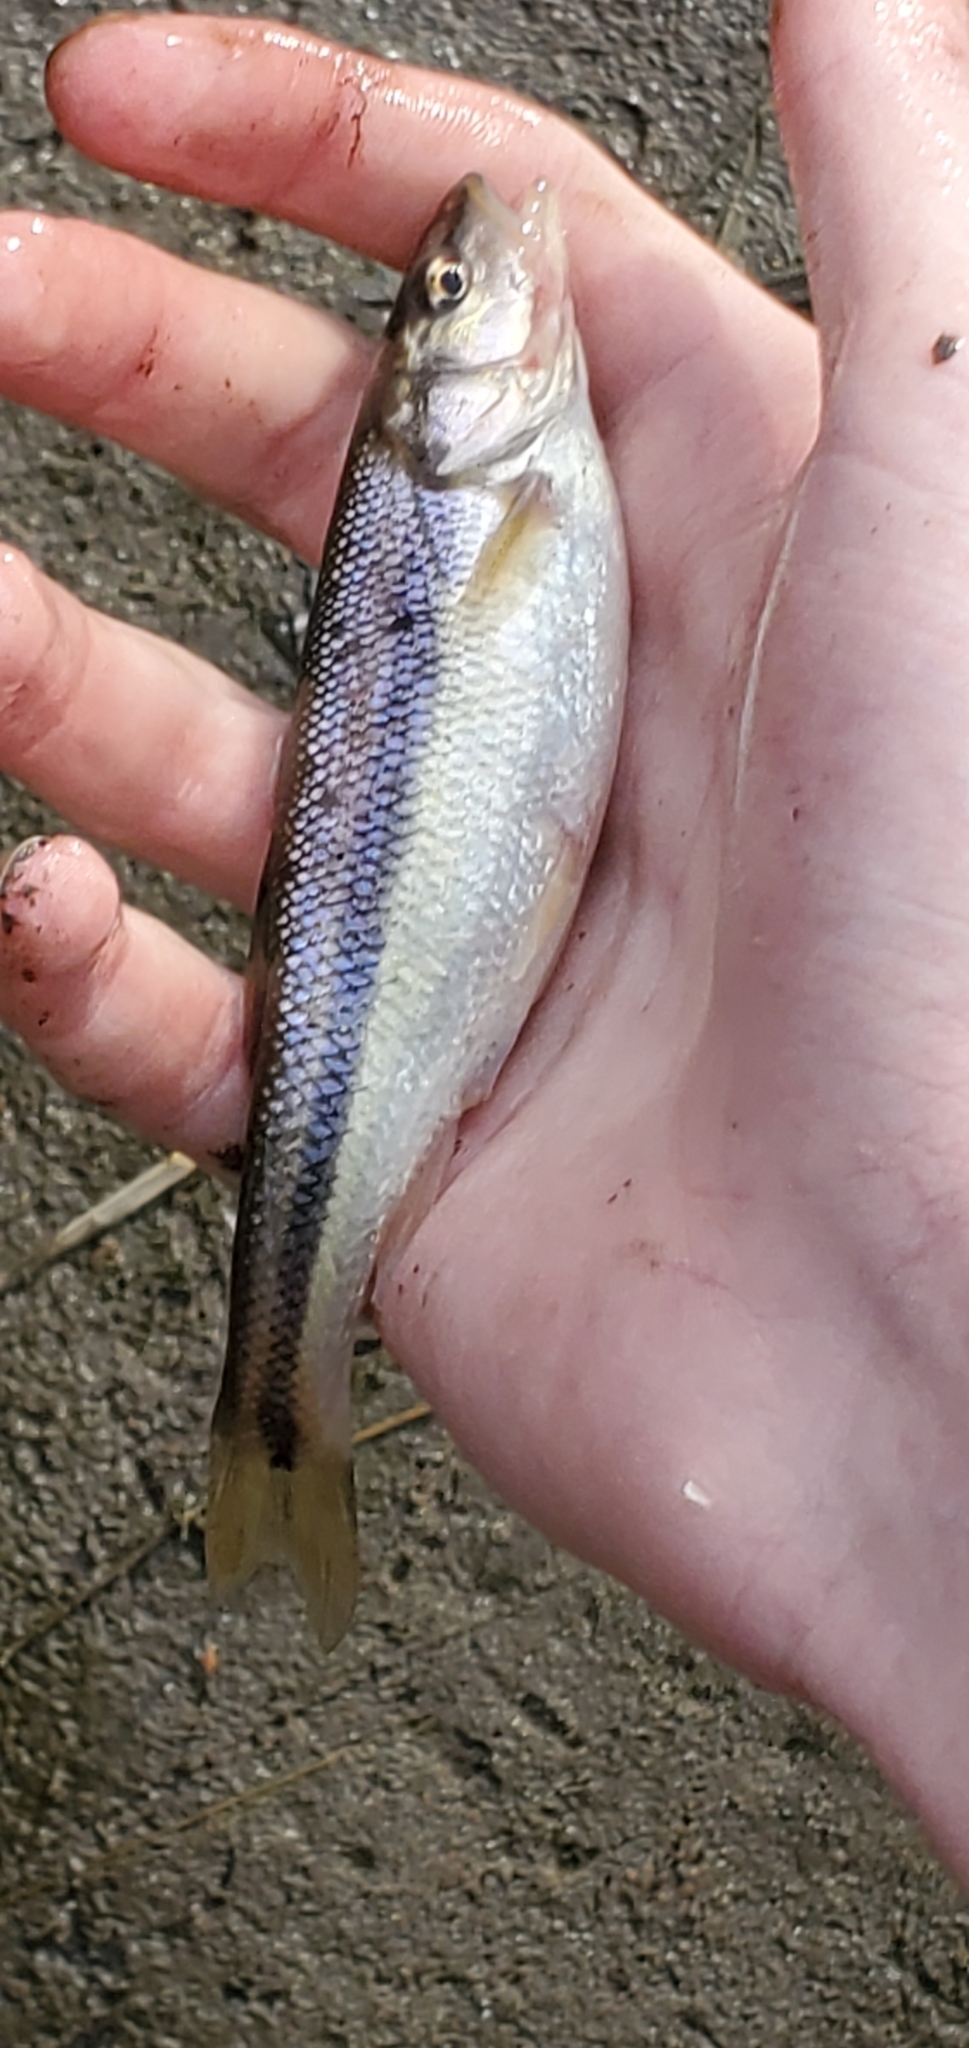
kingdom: Animalia
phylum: Chordata
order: Cypriniformes
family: Cyprinidae
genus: Semotilus
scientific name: Semotilus atromaculatus
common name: Creek chub
